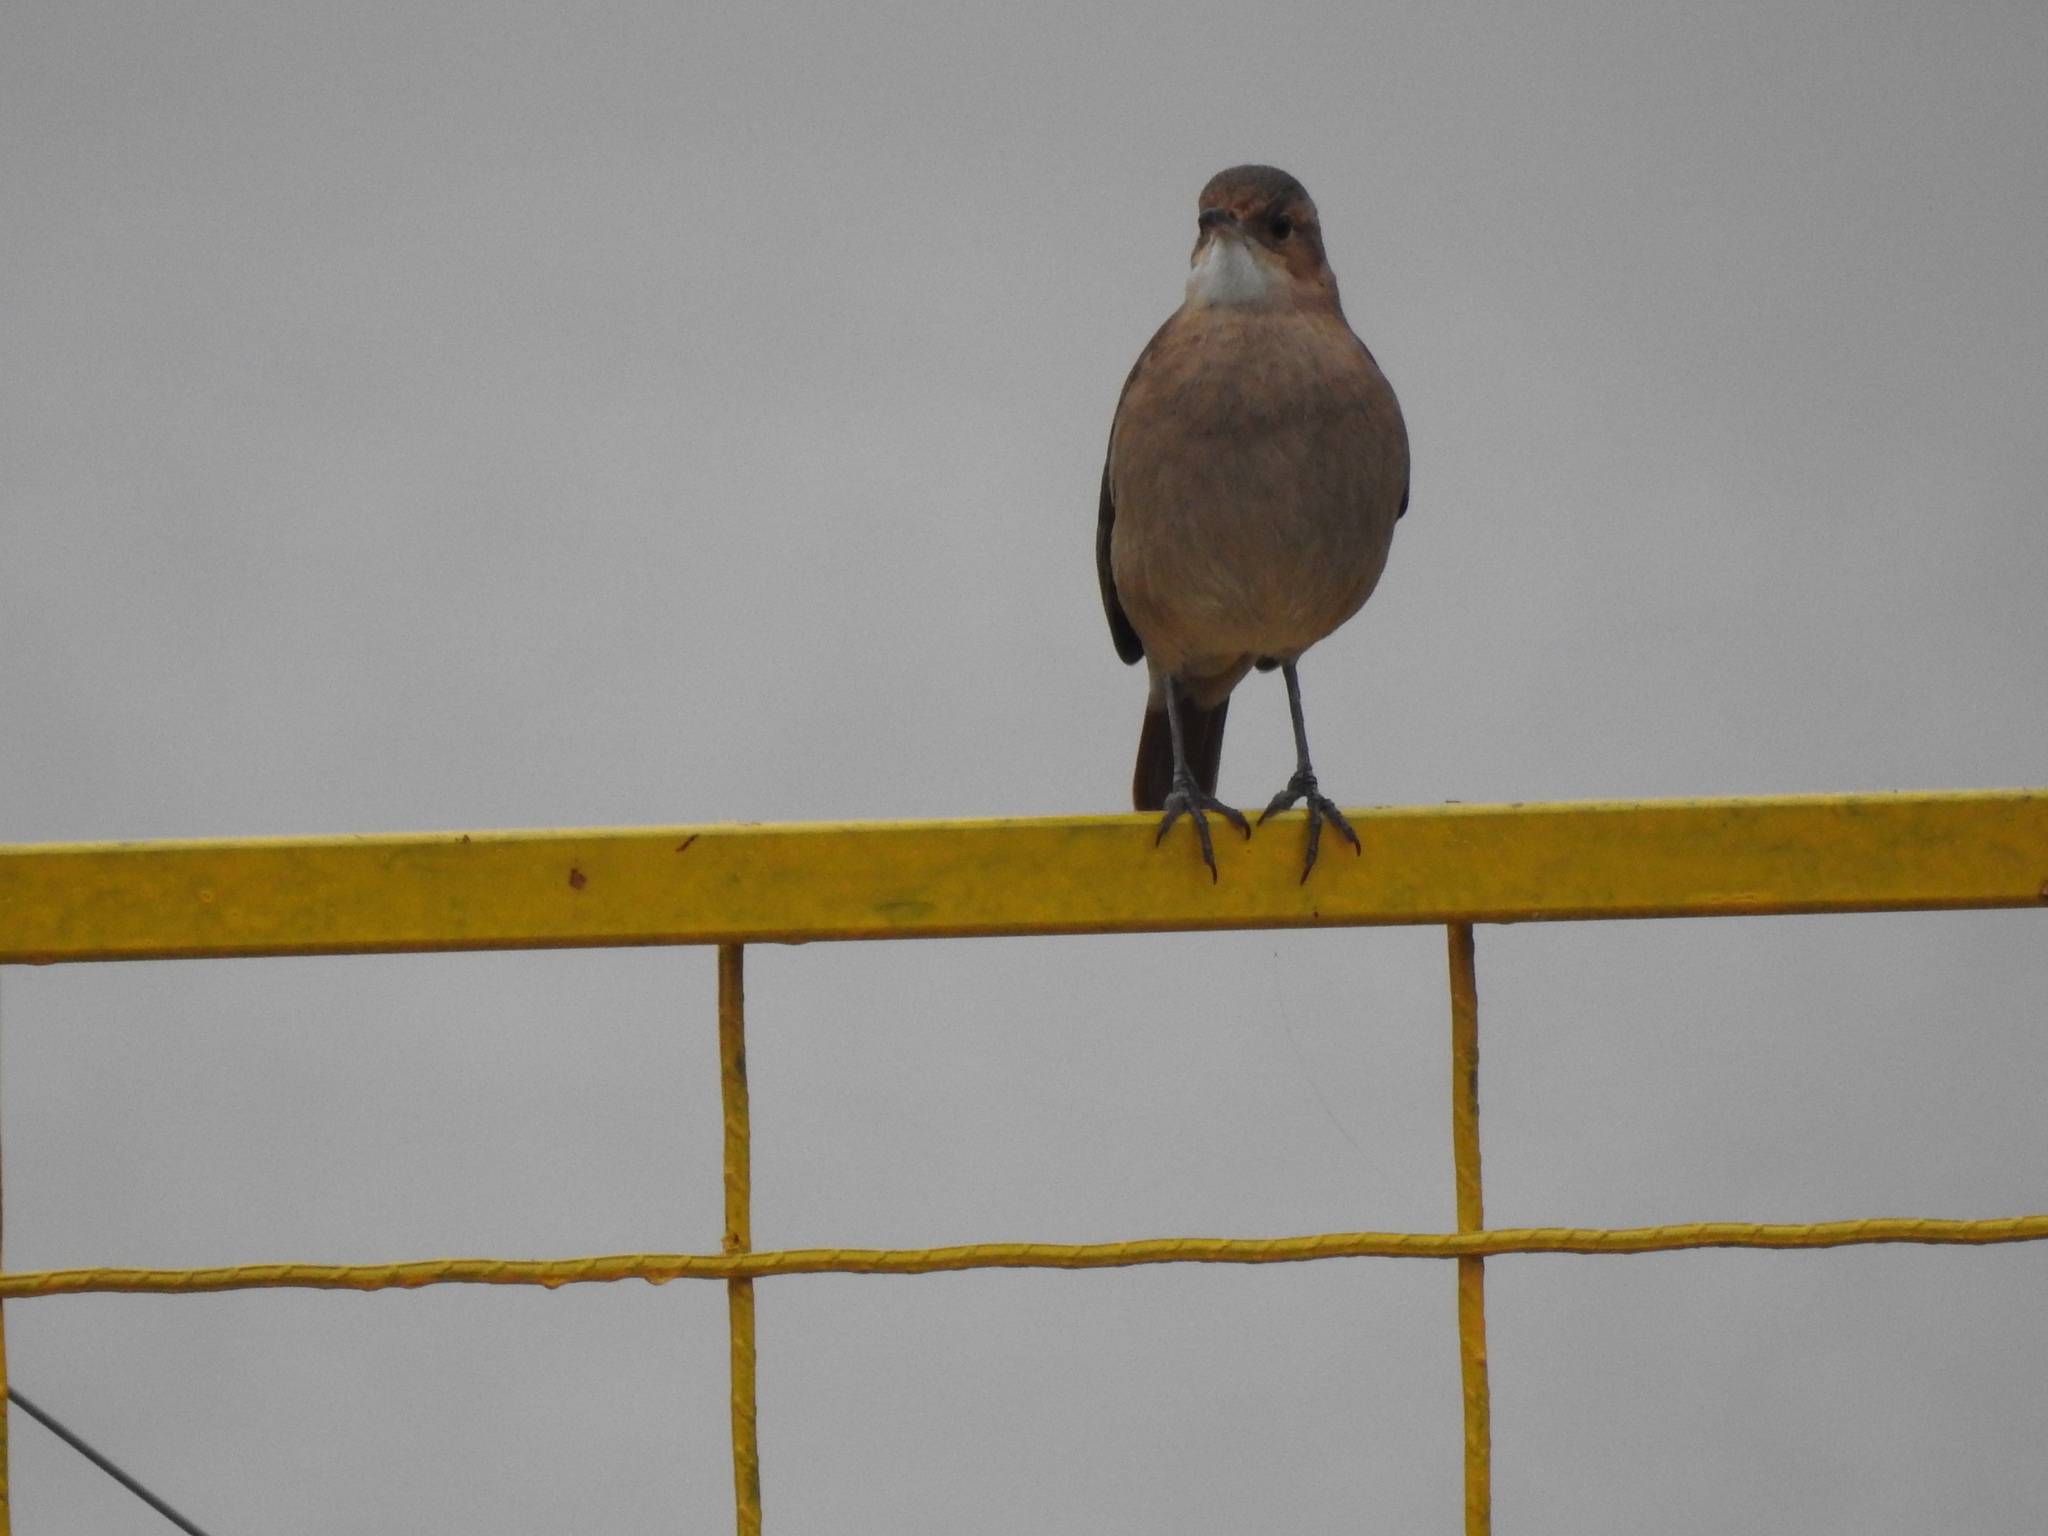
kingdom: Animalia
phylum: Chordata
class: Aves
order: Passeriformes
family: Furnariidae
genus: Furnarius
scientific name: Furnarius rufus
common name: Rufous hornero
